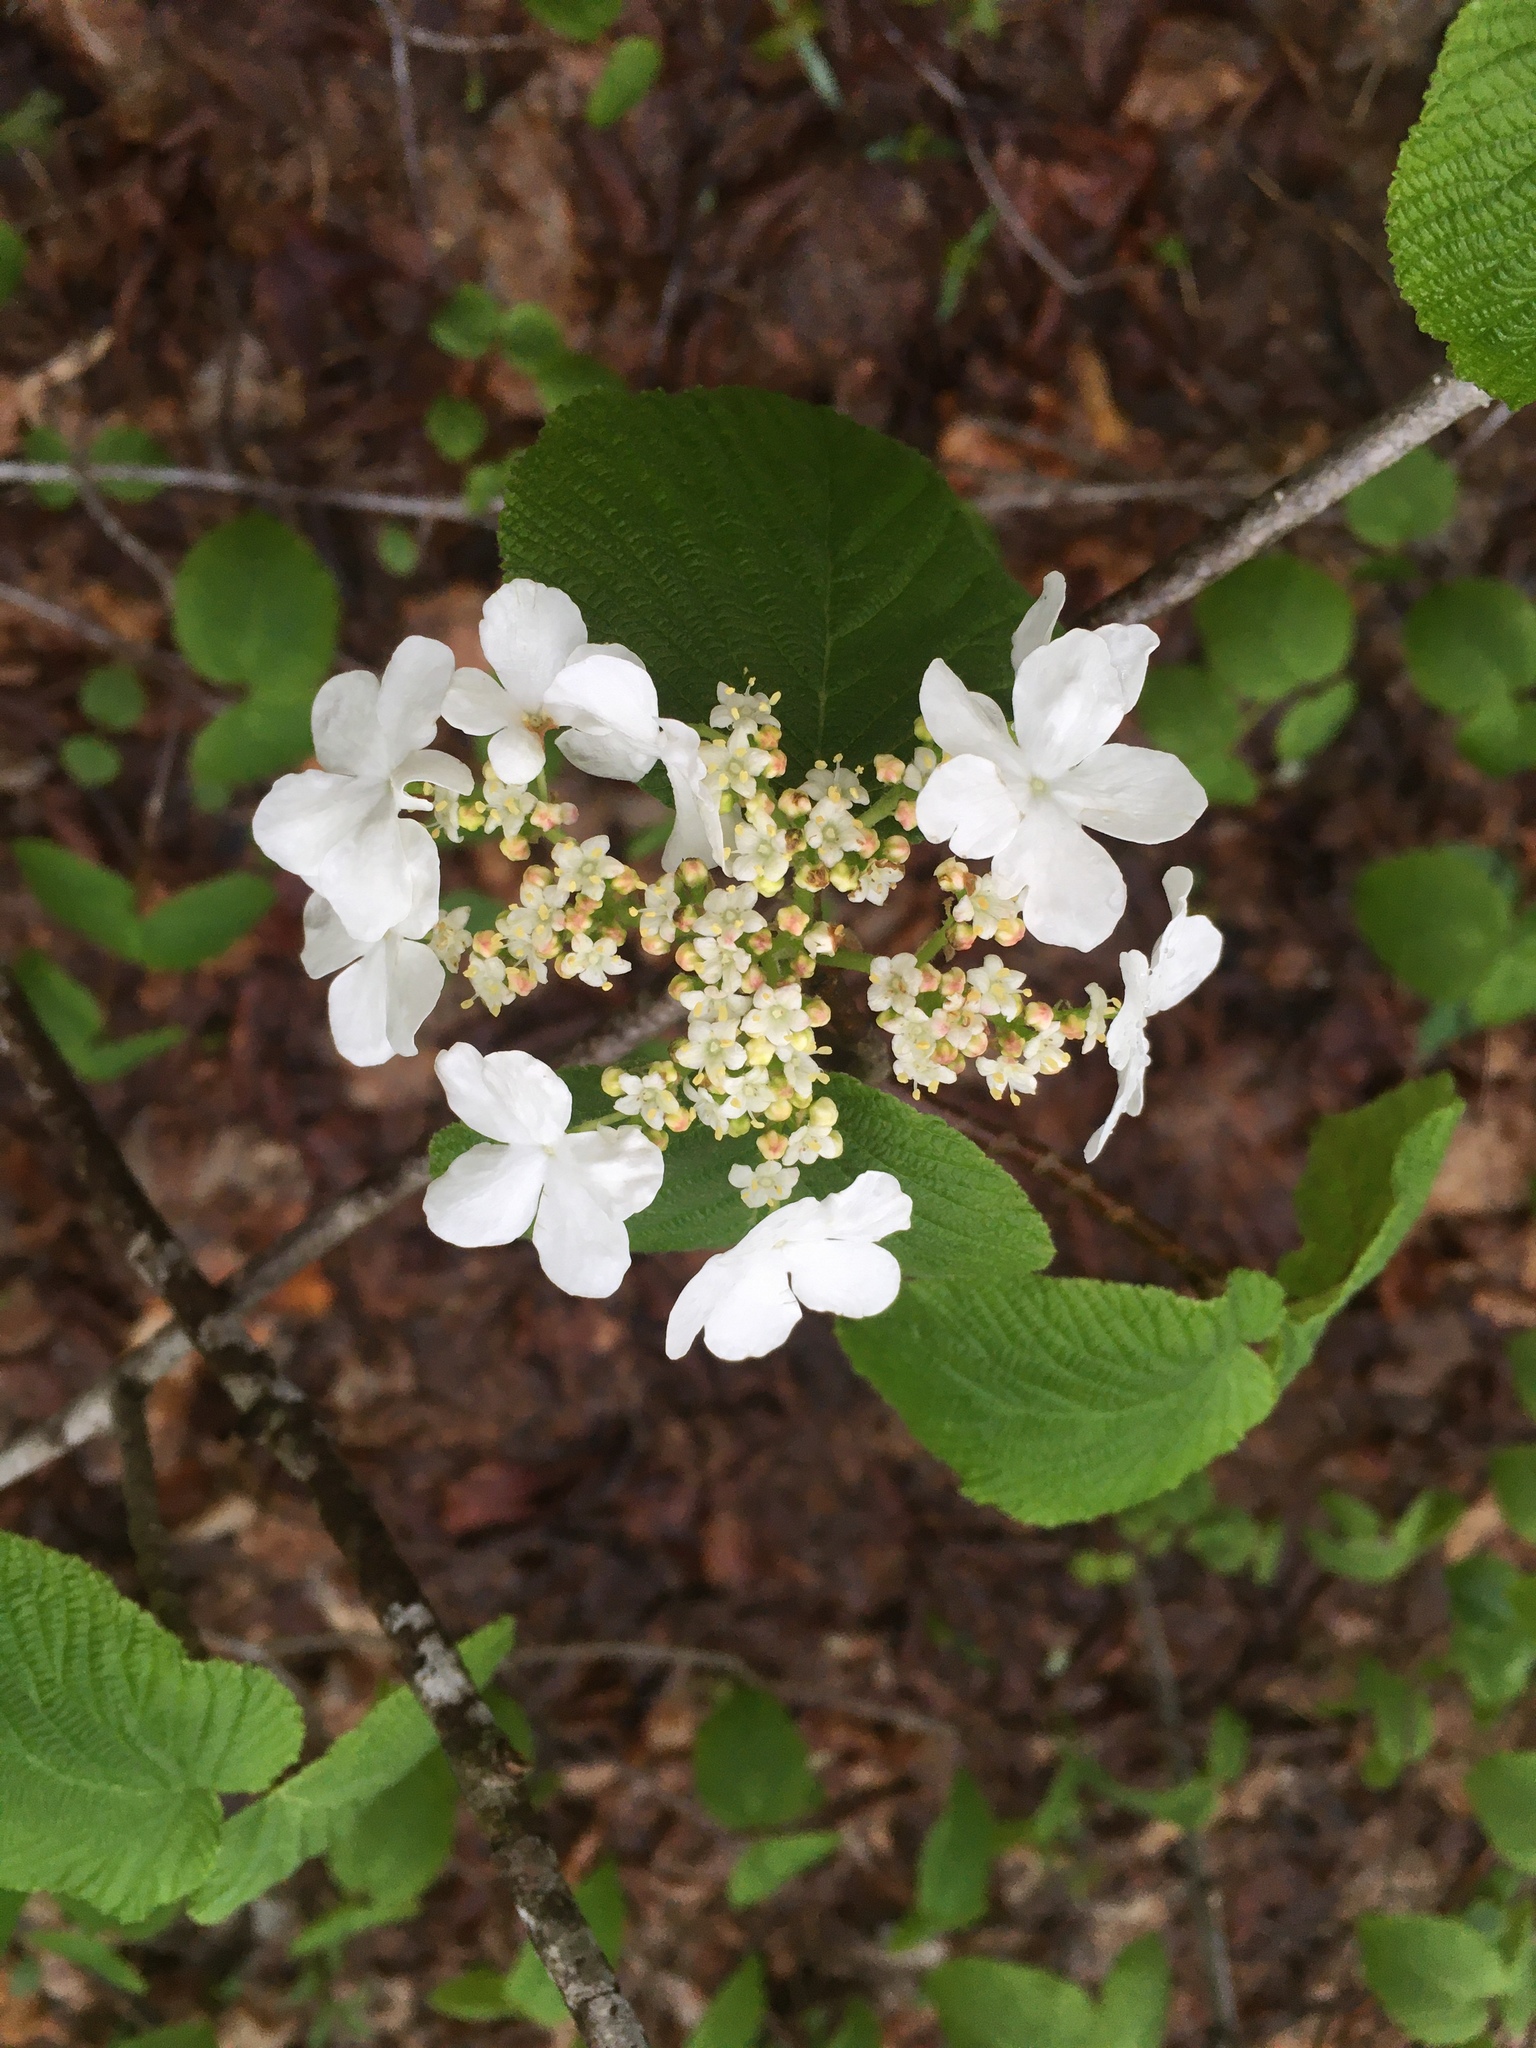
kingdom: Plantae
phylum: Tracheophyta
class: Magnoliopsida
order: Dipsacales
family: Viburnaceae
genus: Viburnum
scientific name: Viburnum lantanoides
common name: Hobblebush
